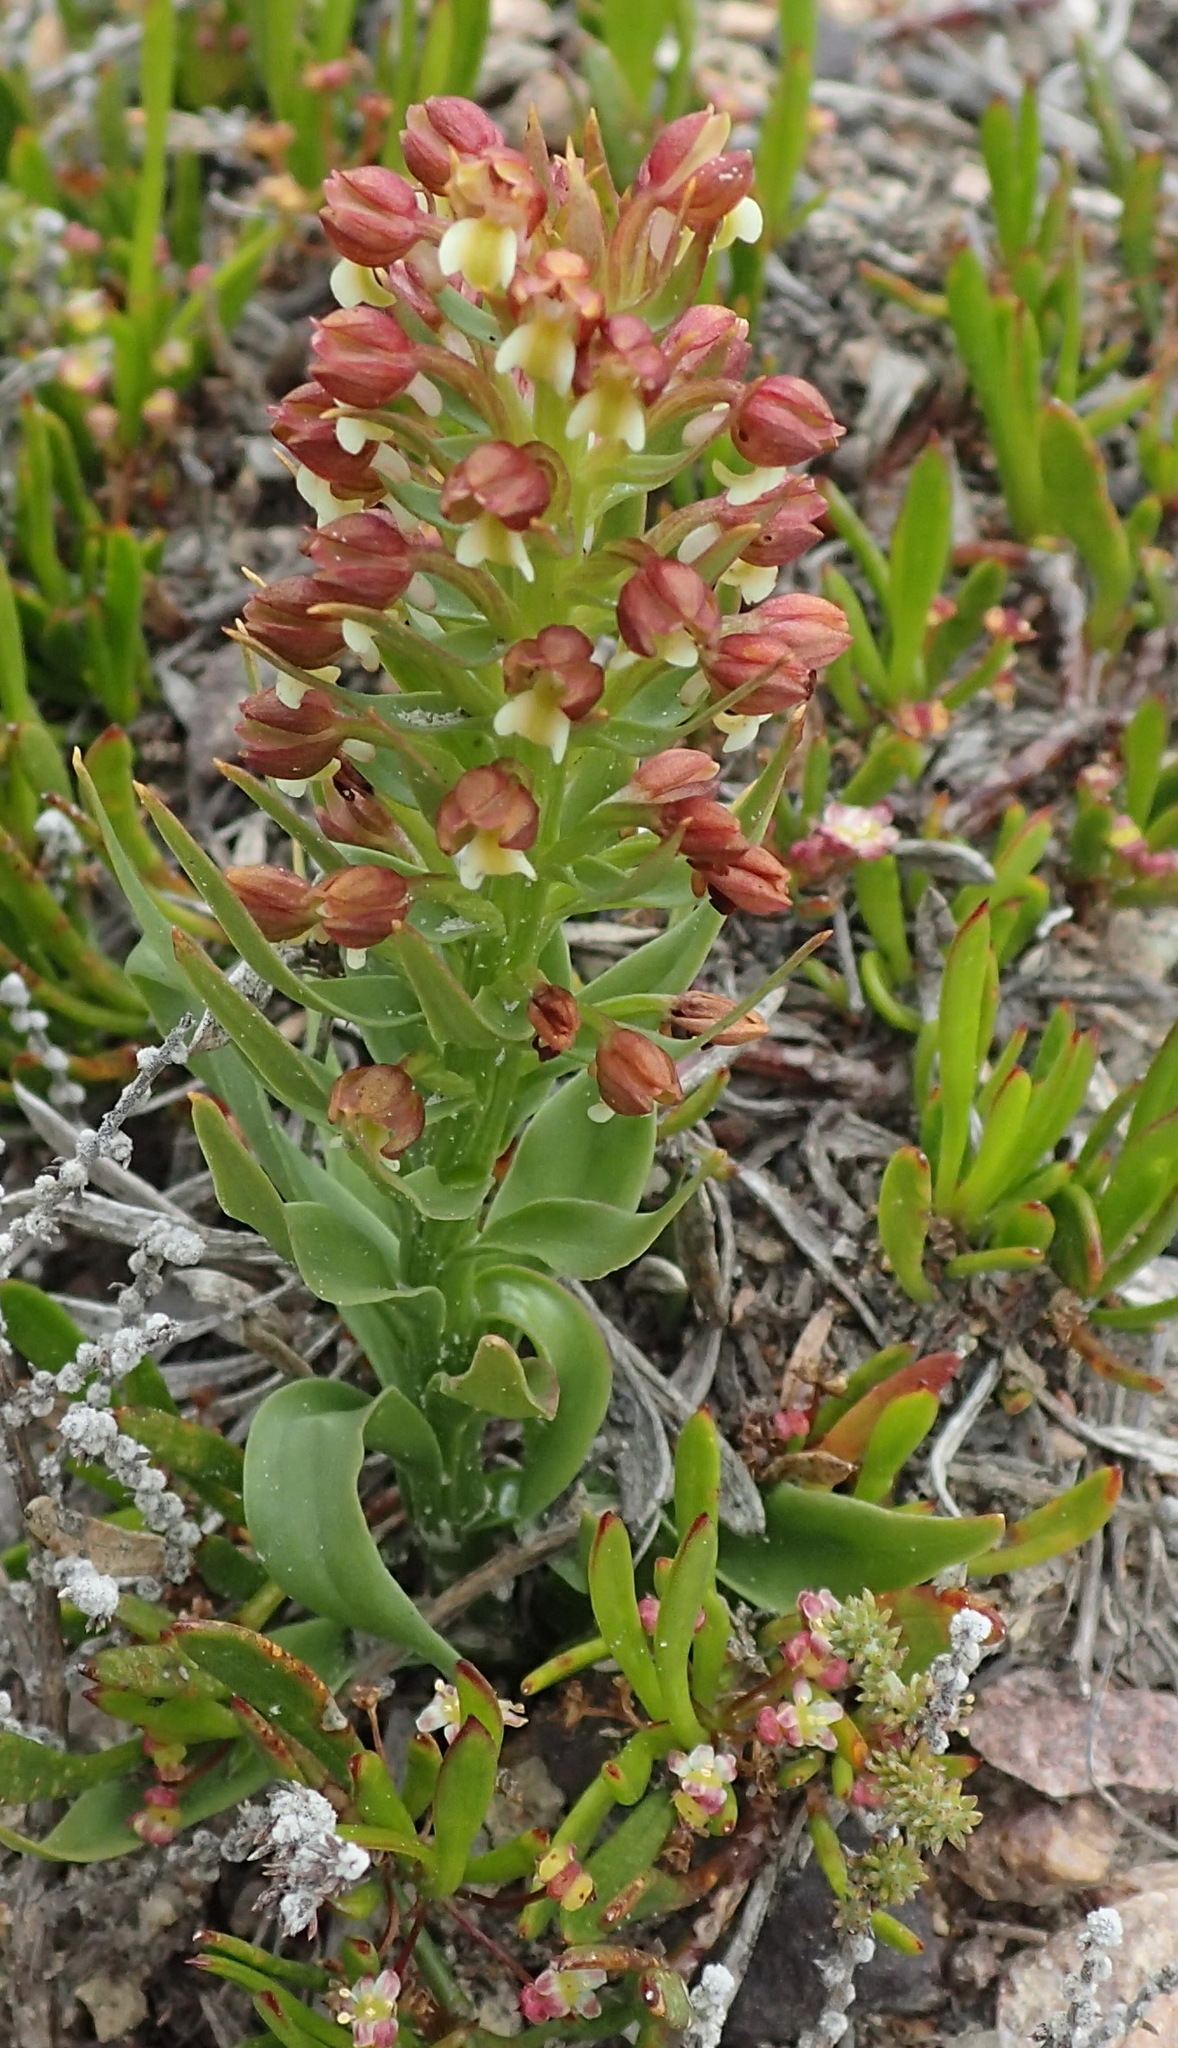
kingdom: Plantae
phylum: Tracheophyta
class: Liliopsida
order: Asparagales
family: Orchidaceae
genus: Brachycorythis
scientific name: Brachycorythis mac-owaniana
